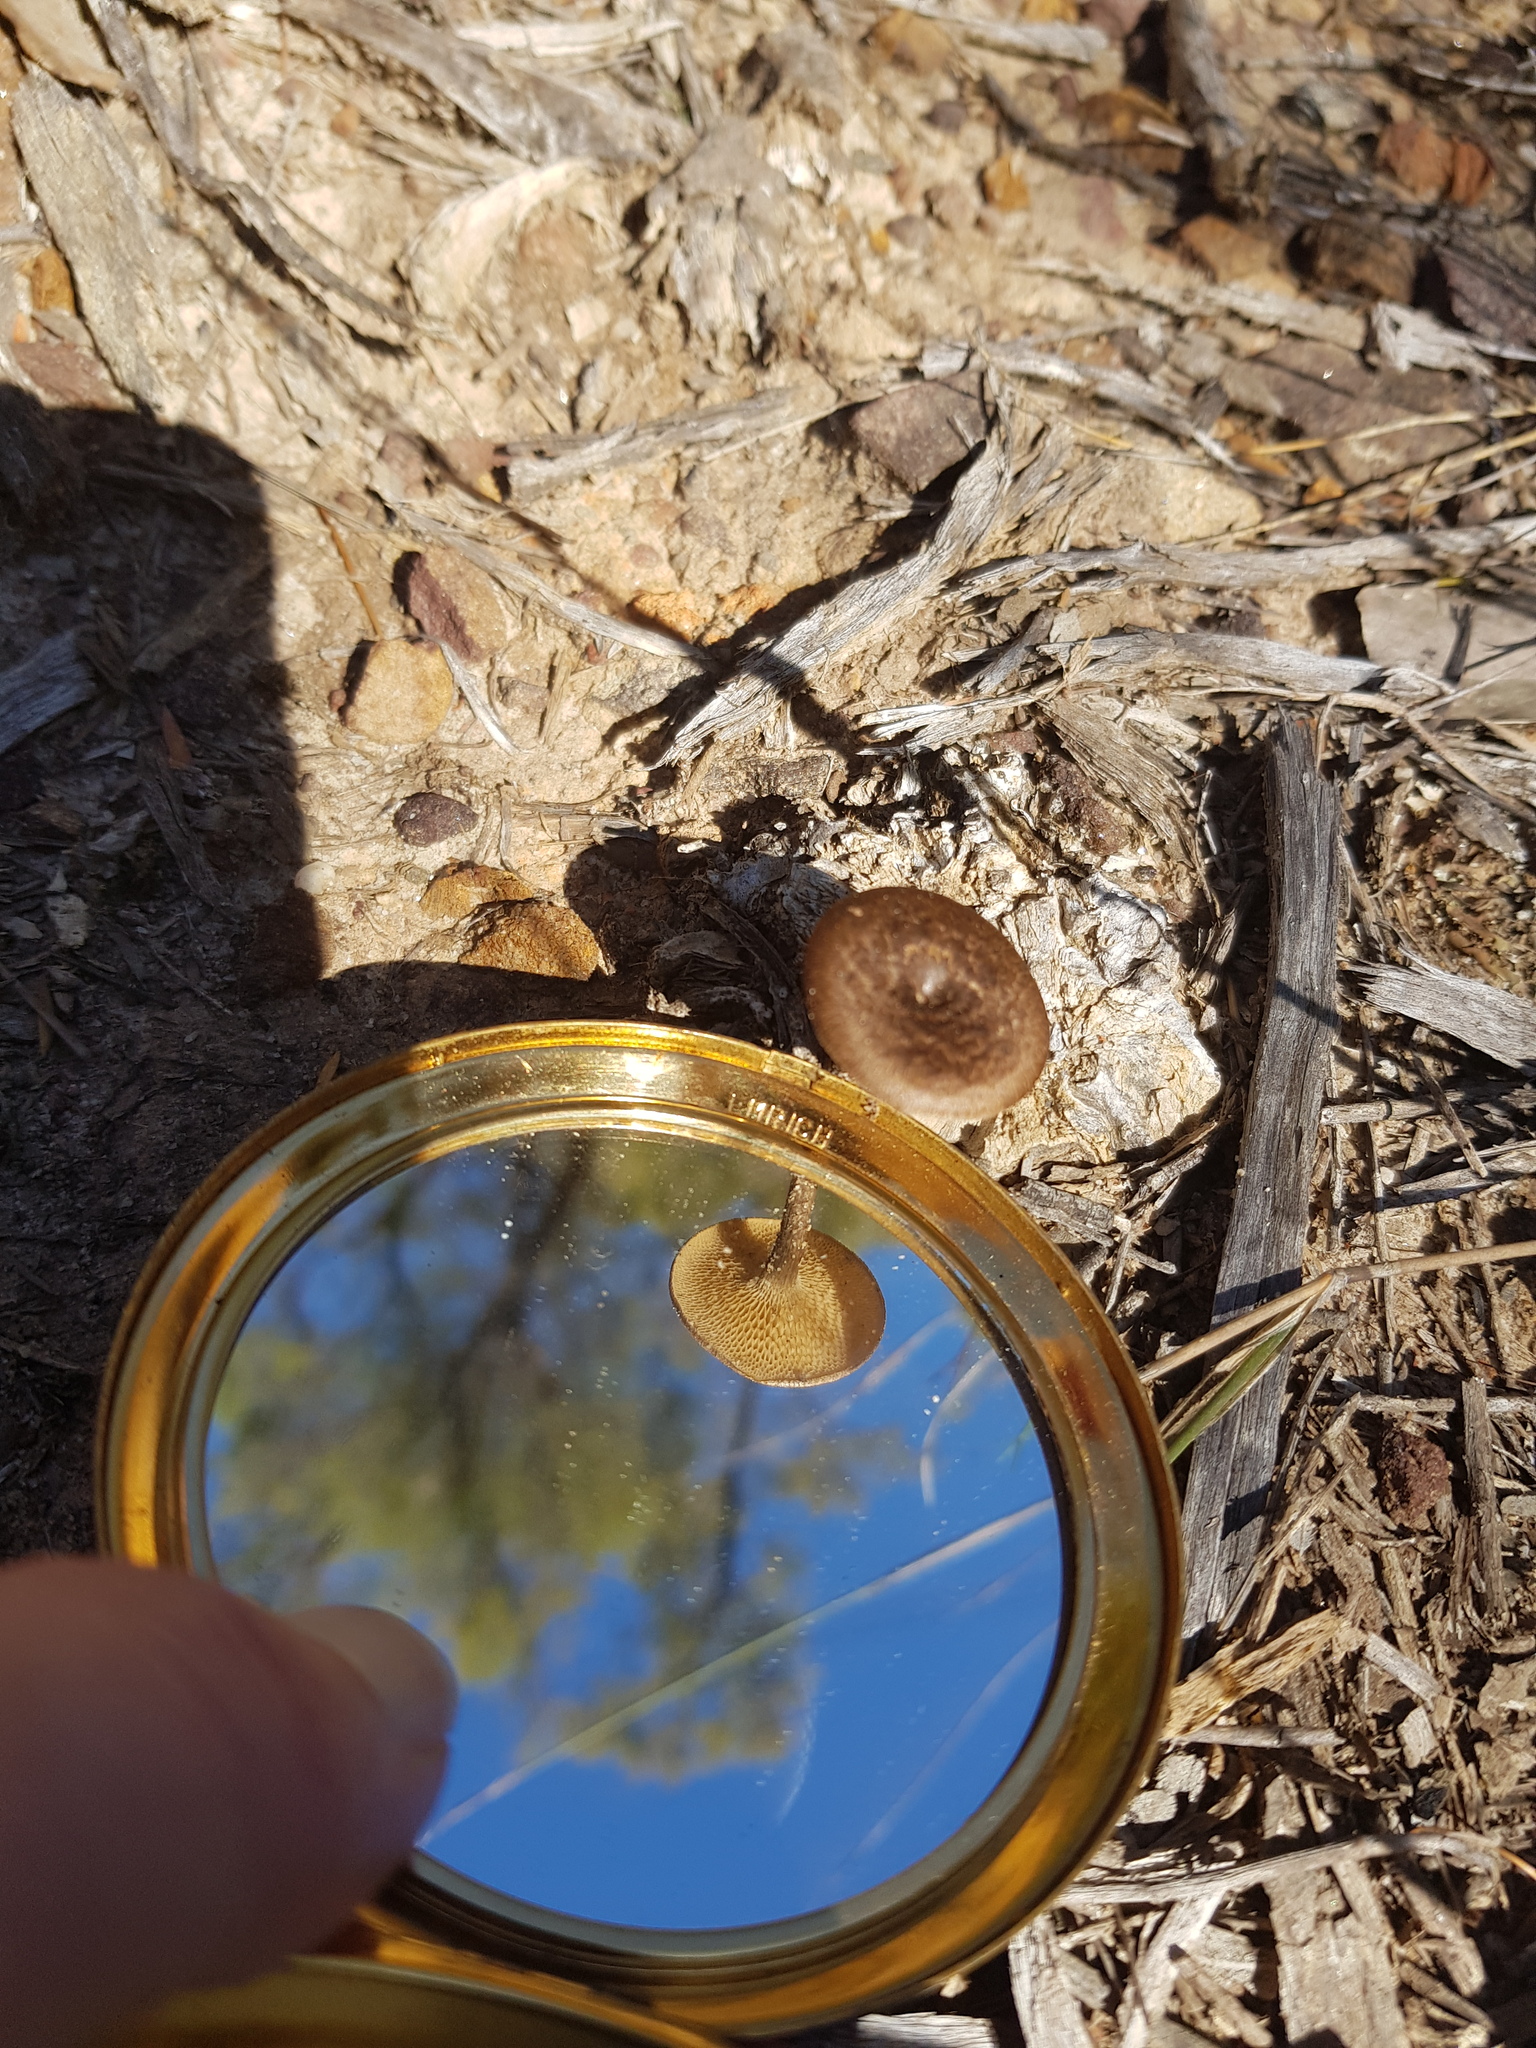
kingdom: Fungi
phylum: Basidiomycota
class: Agaricomycetes
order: Polyporales
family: Polyporaceae
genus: Lentinus
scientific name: Lentinus arcularius
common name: Spring polypore
